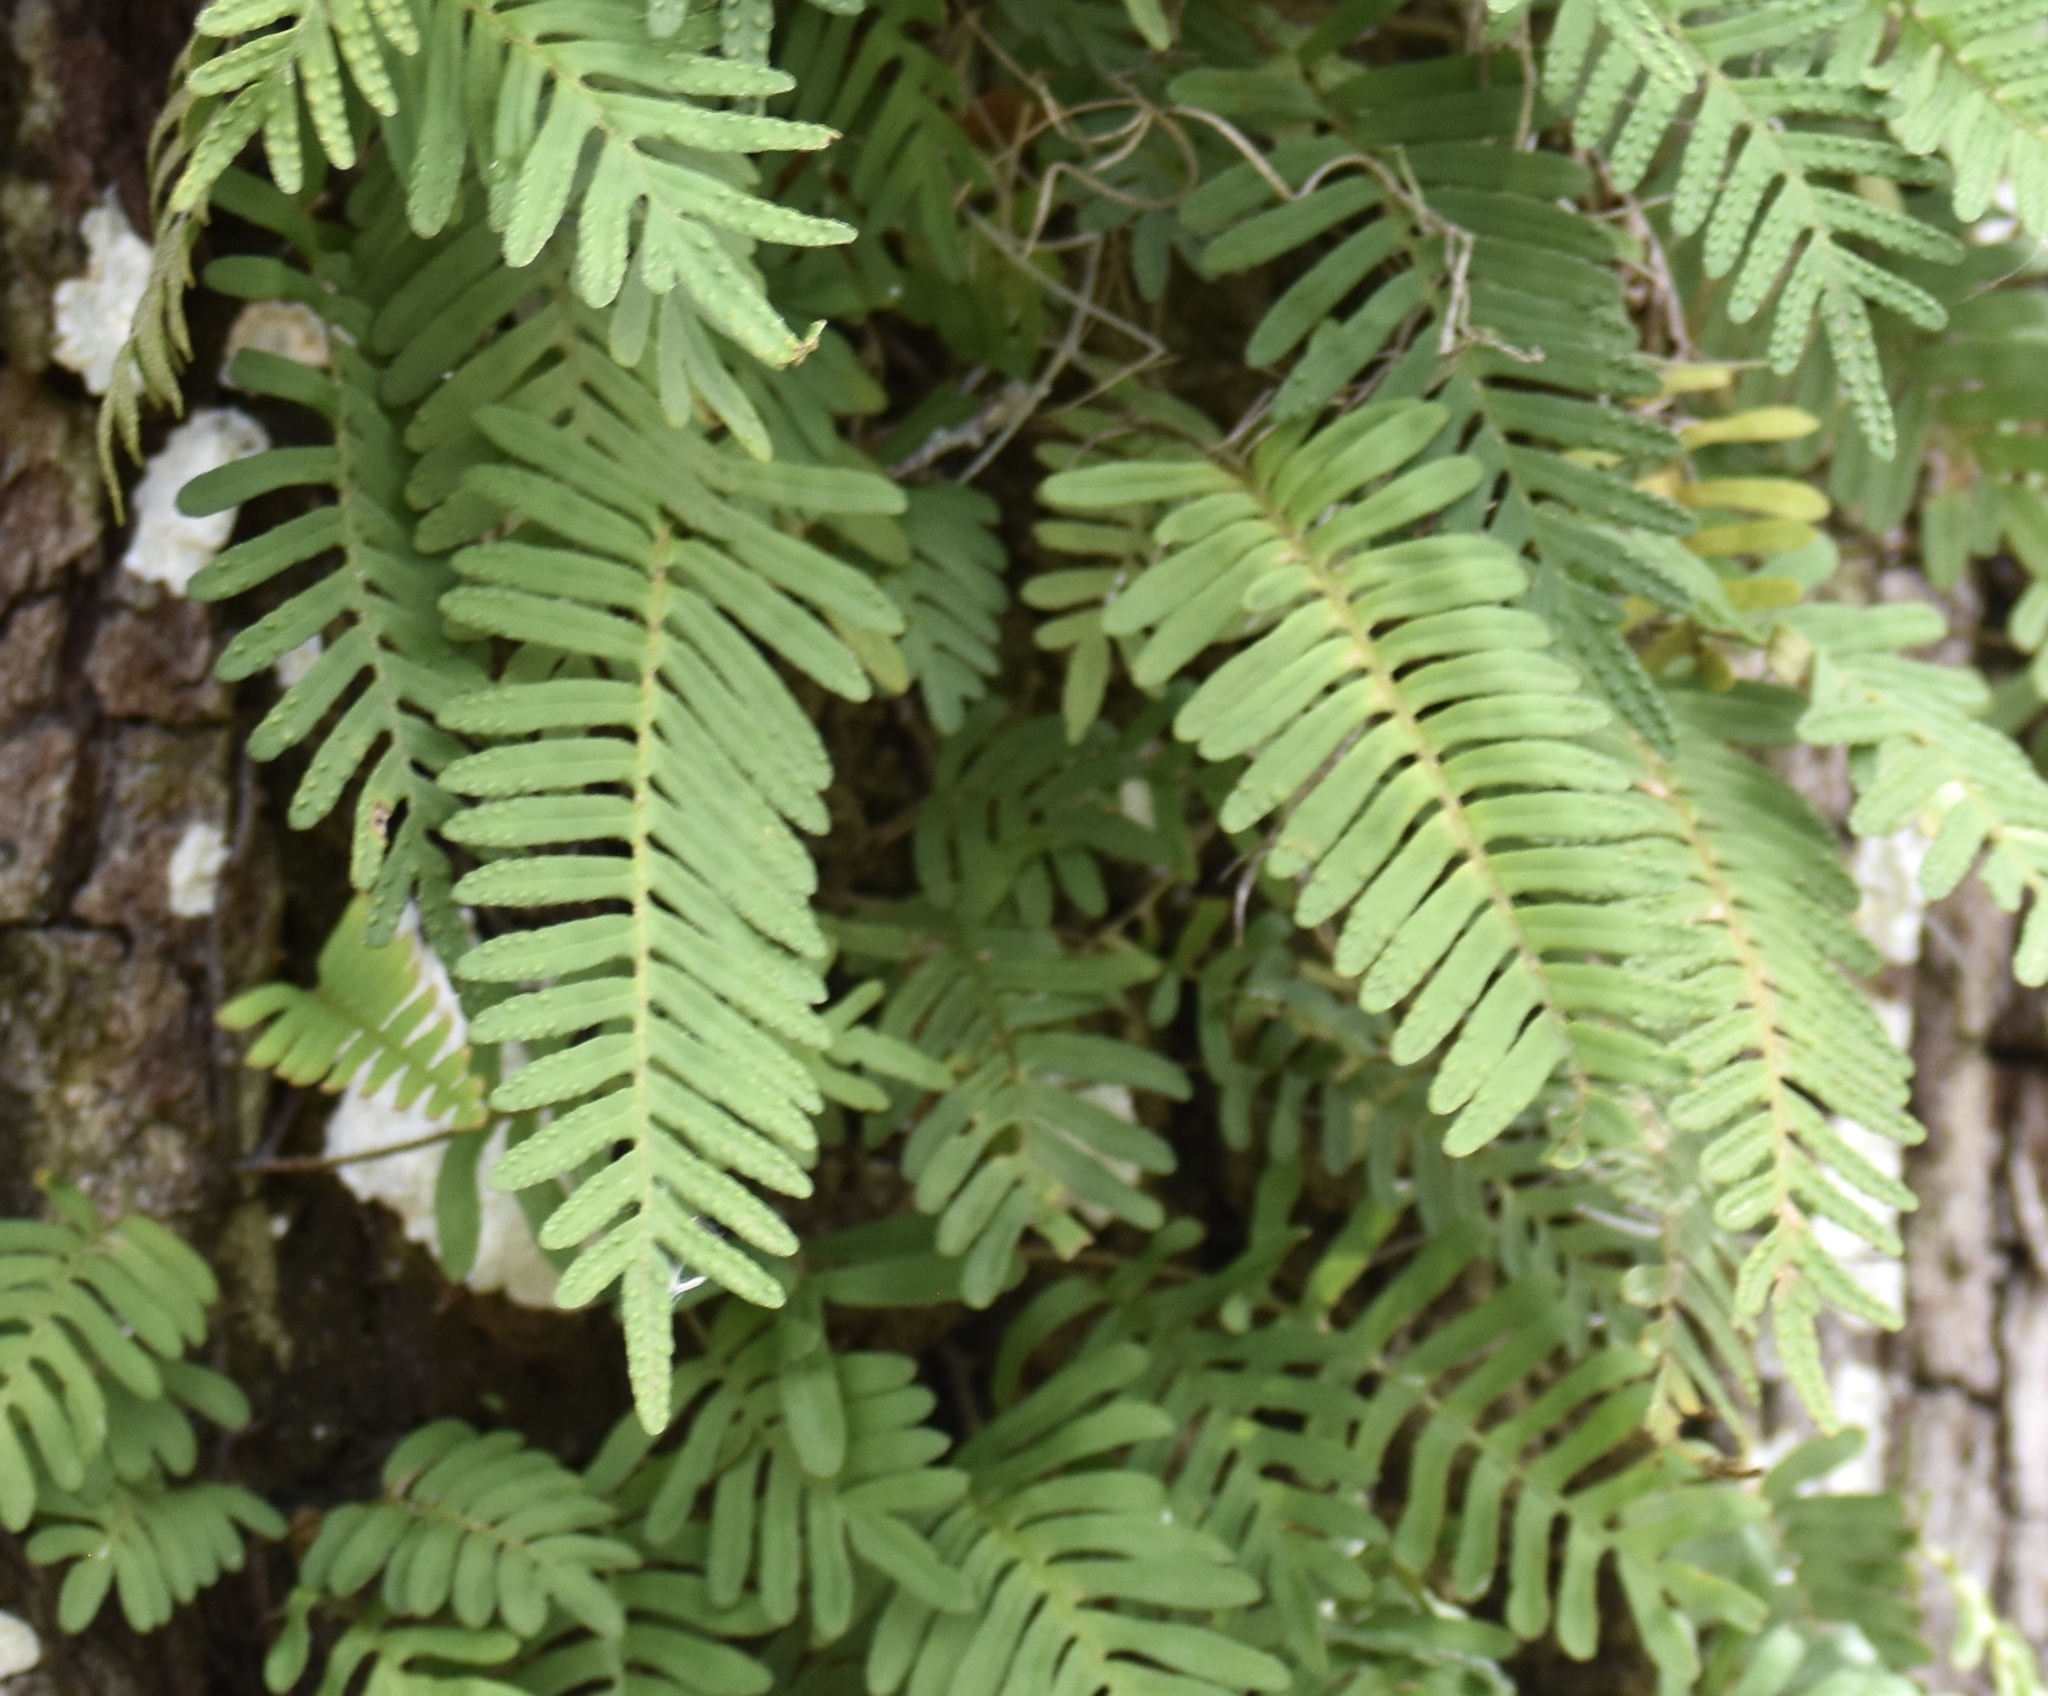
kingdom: Plantae
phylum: Tracheophyta
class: Polypodiopsida
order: Polypodiales
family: Polypodiaceae
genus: Pleopeltis
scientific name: Pleopeltis michauxiana
